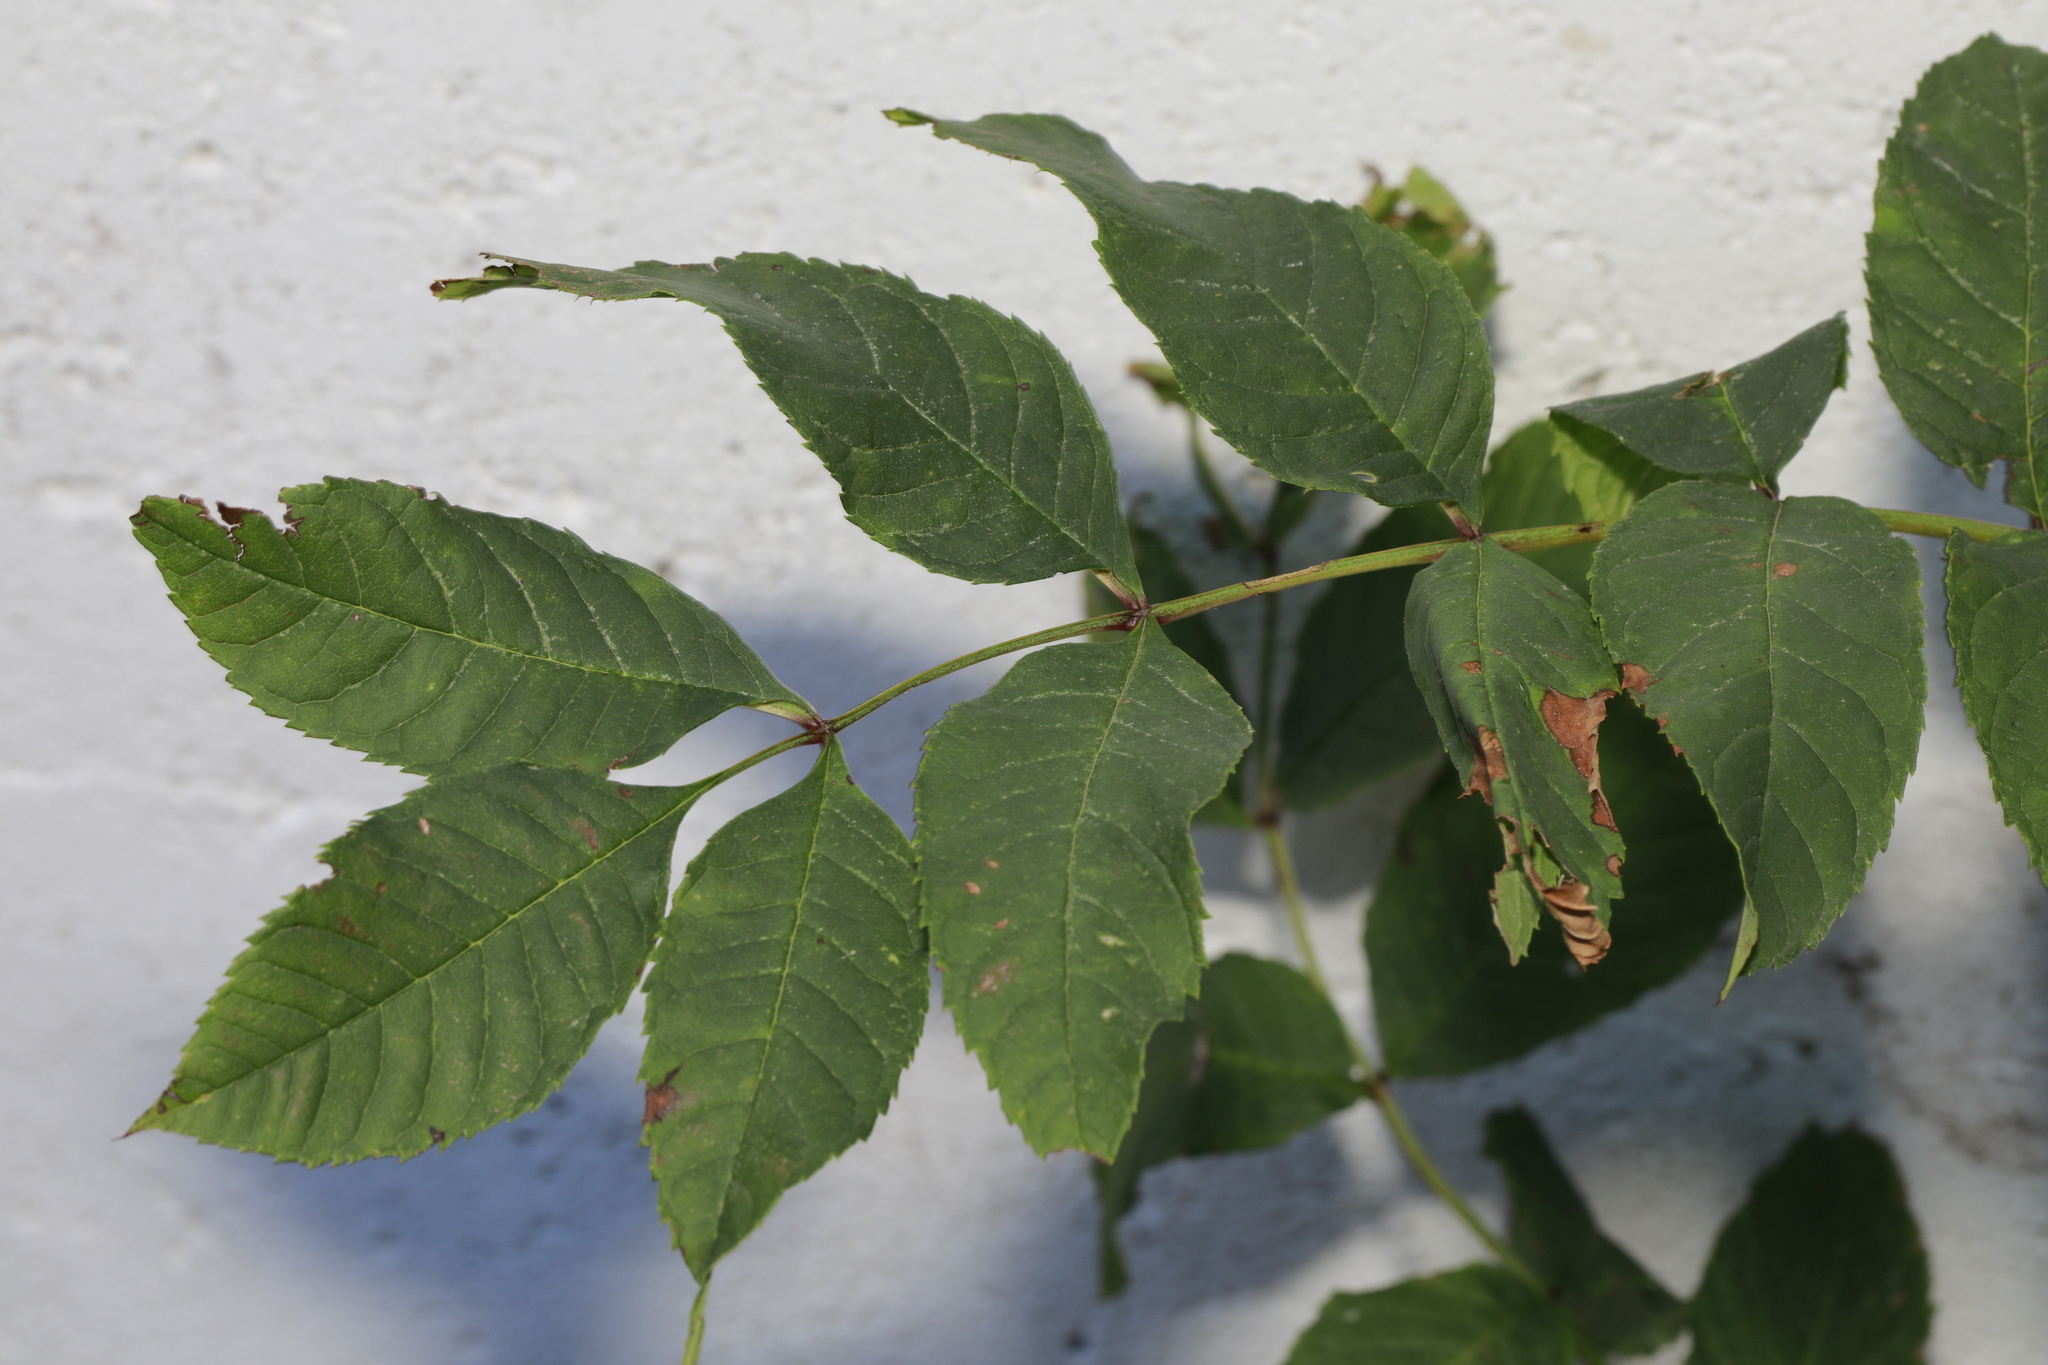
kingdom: Plantae
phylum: Tracheophyta
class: Magnoliopsida
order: Lamiales
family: Oleaceae
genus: Fraxinus
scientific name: Fraxinus excelsior
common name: European ash
